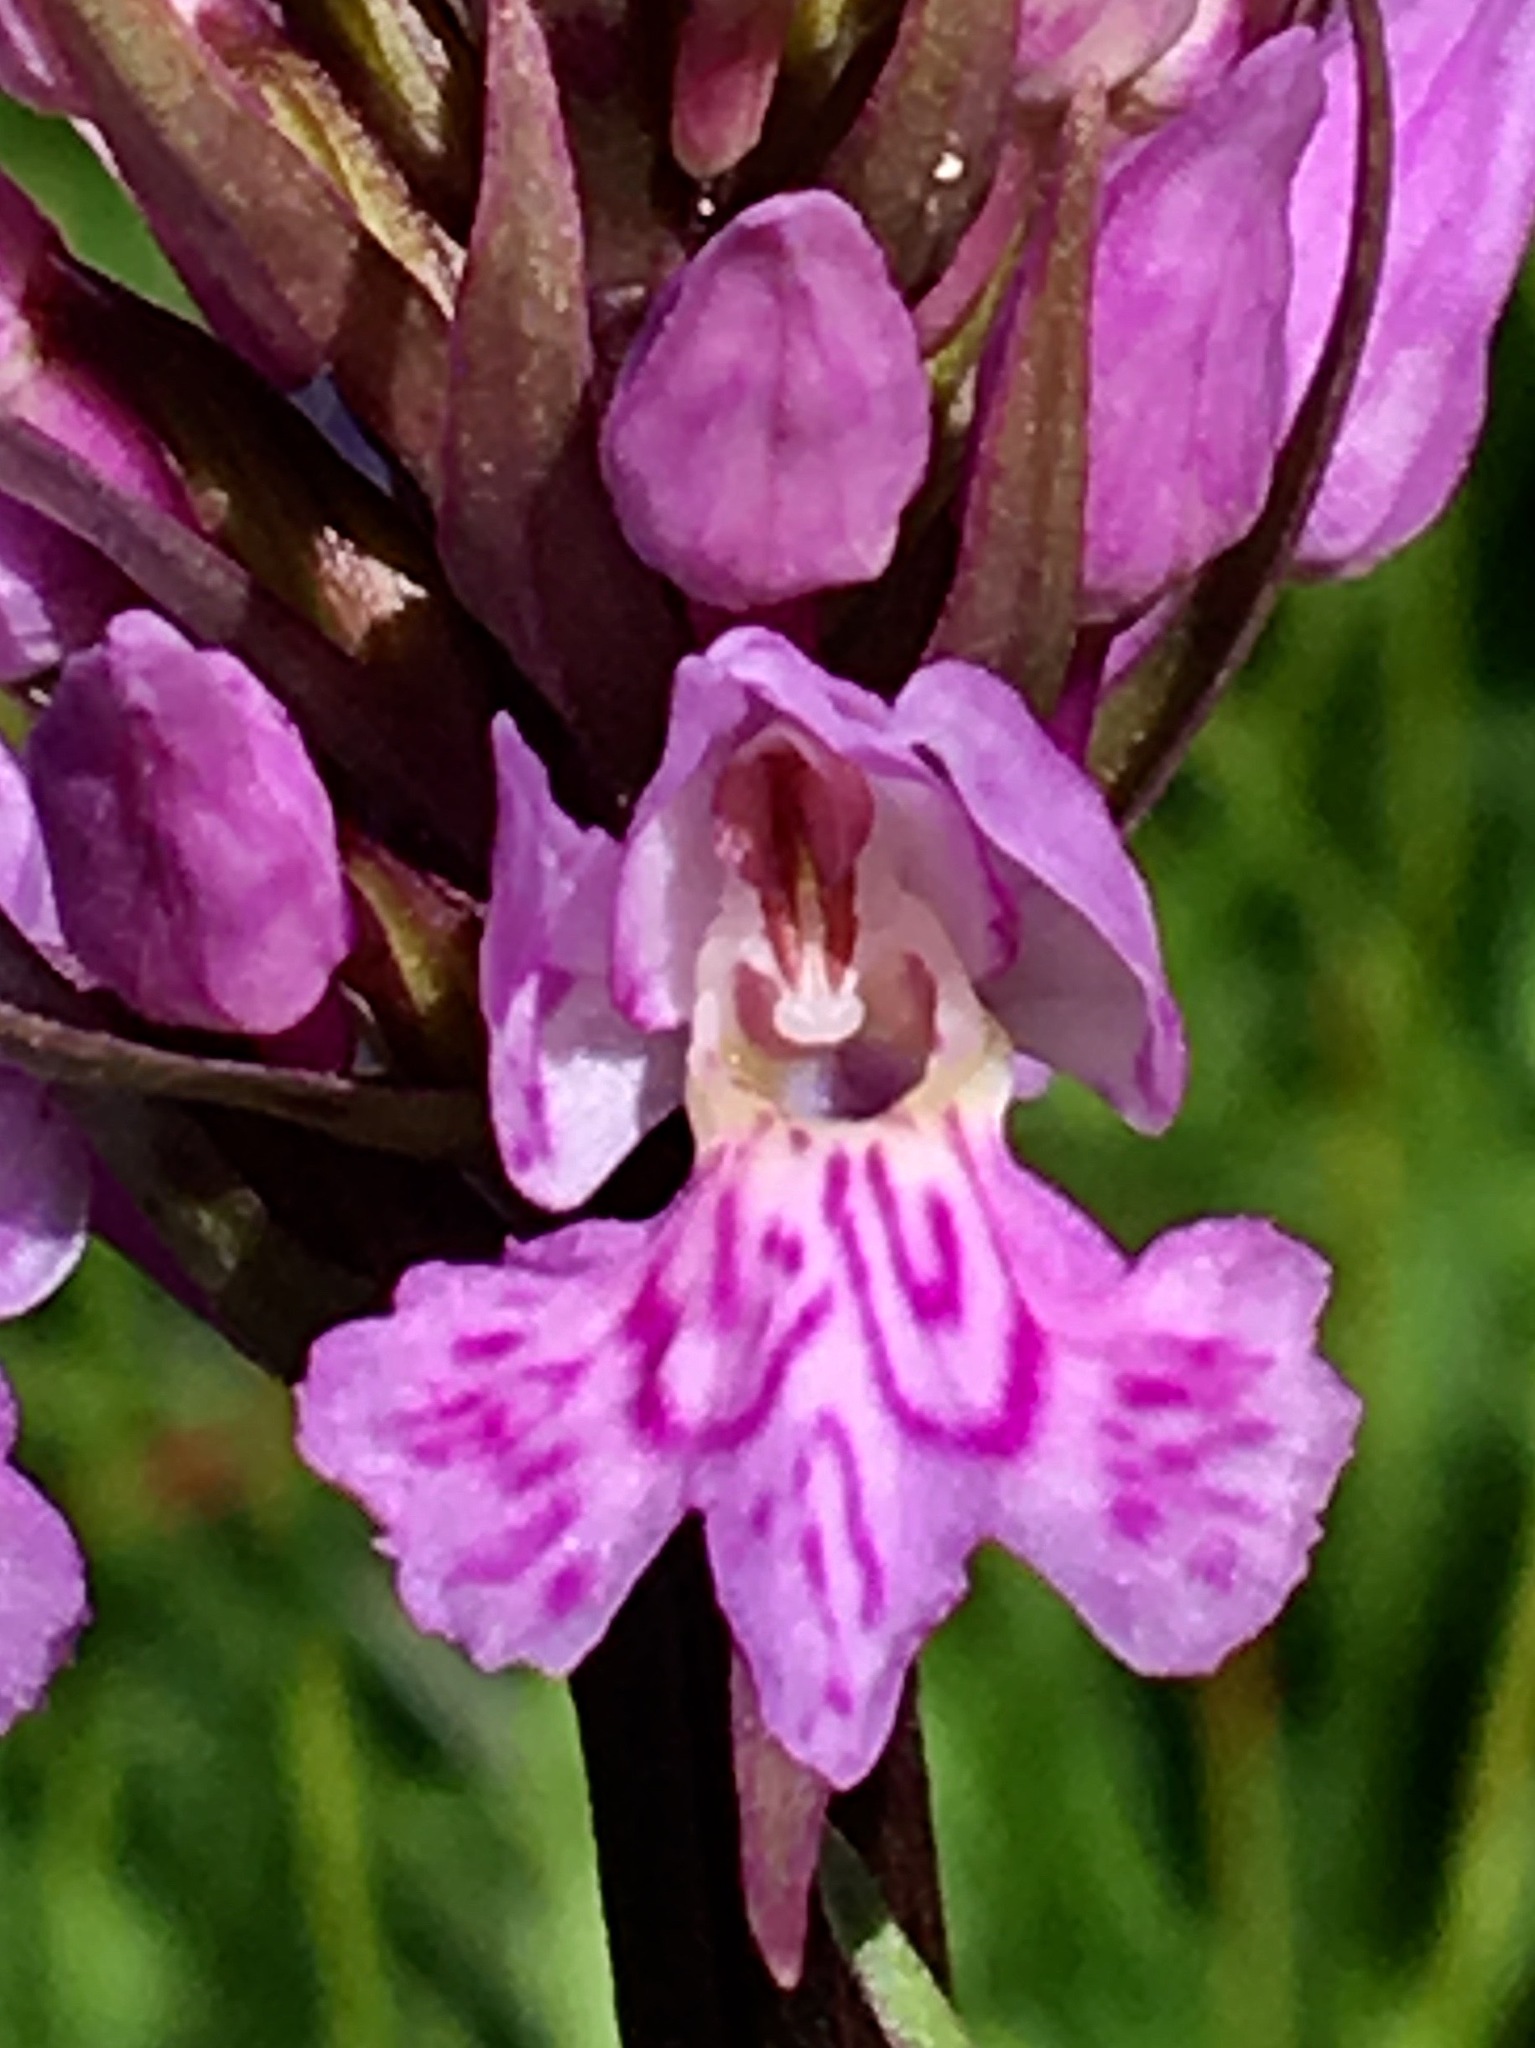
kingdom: Plantae
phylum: Tracheophyta
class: Liliopsida
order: Asparagales
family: Orchidaceae
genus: Dactylorhiza
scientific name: Dactylorhiza maculata
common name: Heath spotted-orchid
